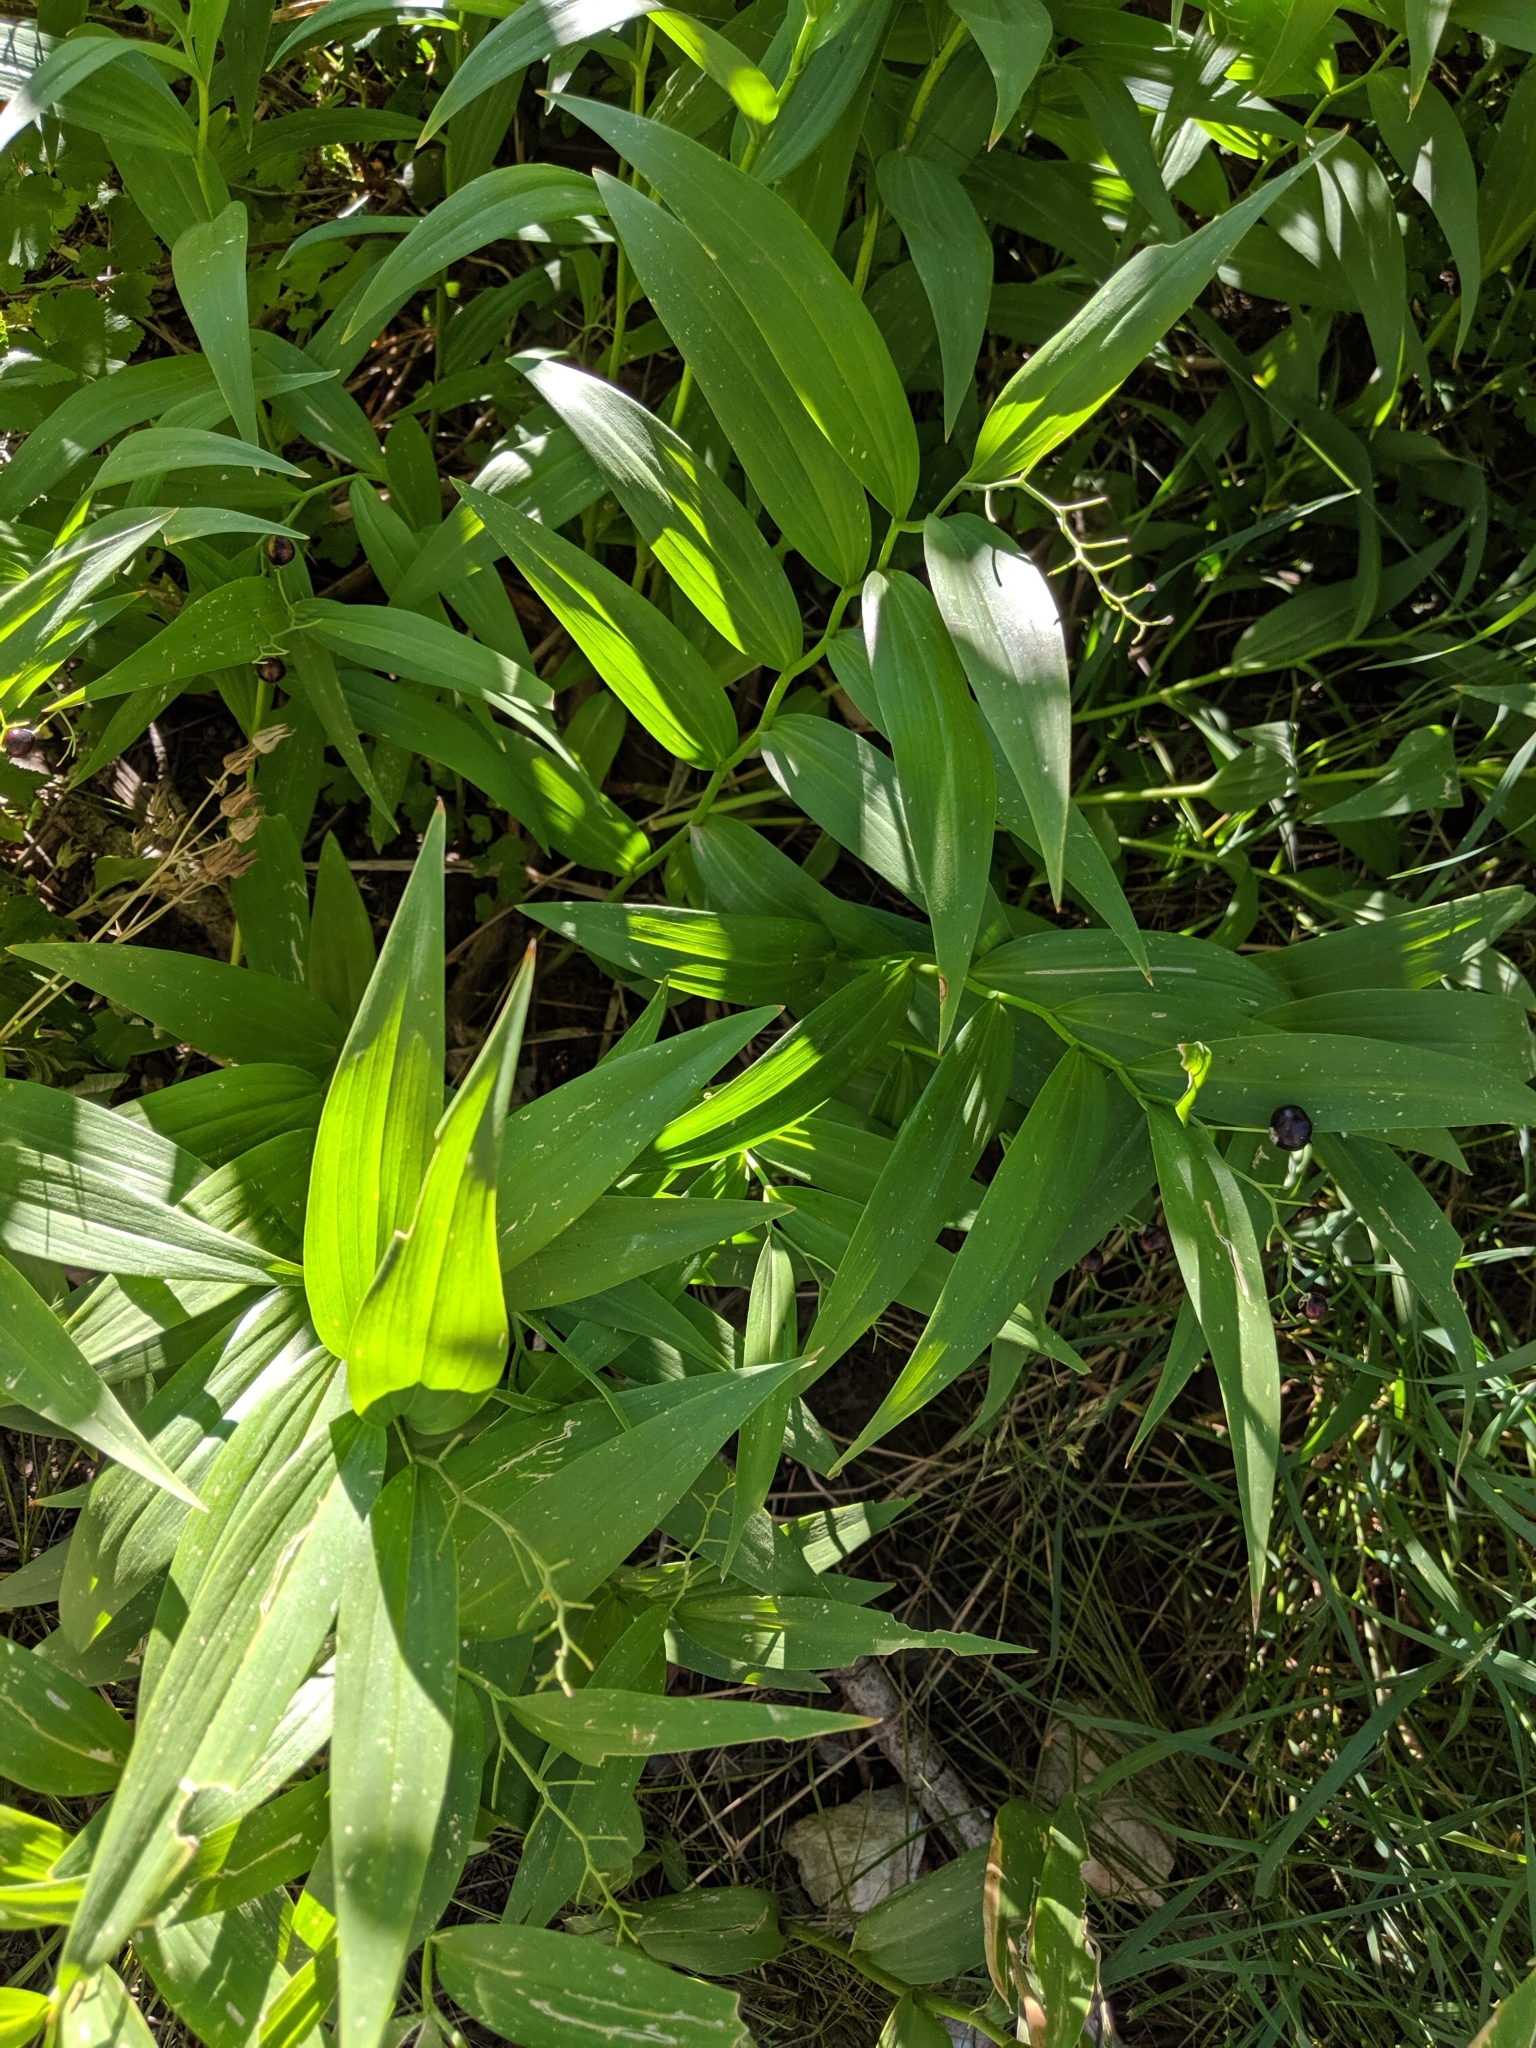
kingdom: Plantae
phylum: Tracheophyta
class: Liliopsida
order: Asparagales
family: Asparagaceae
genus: Maianthemum
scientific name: Maianthemum stellatum
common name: Little false solomon's seal
